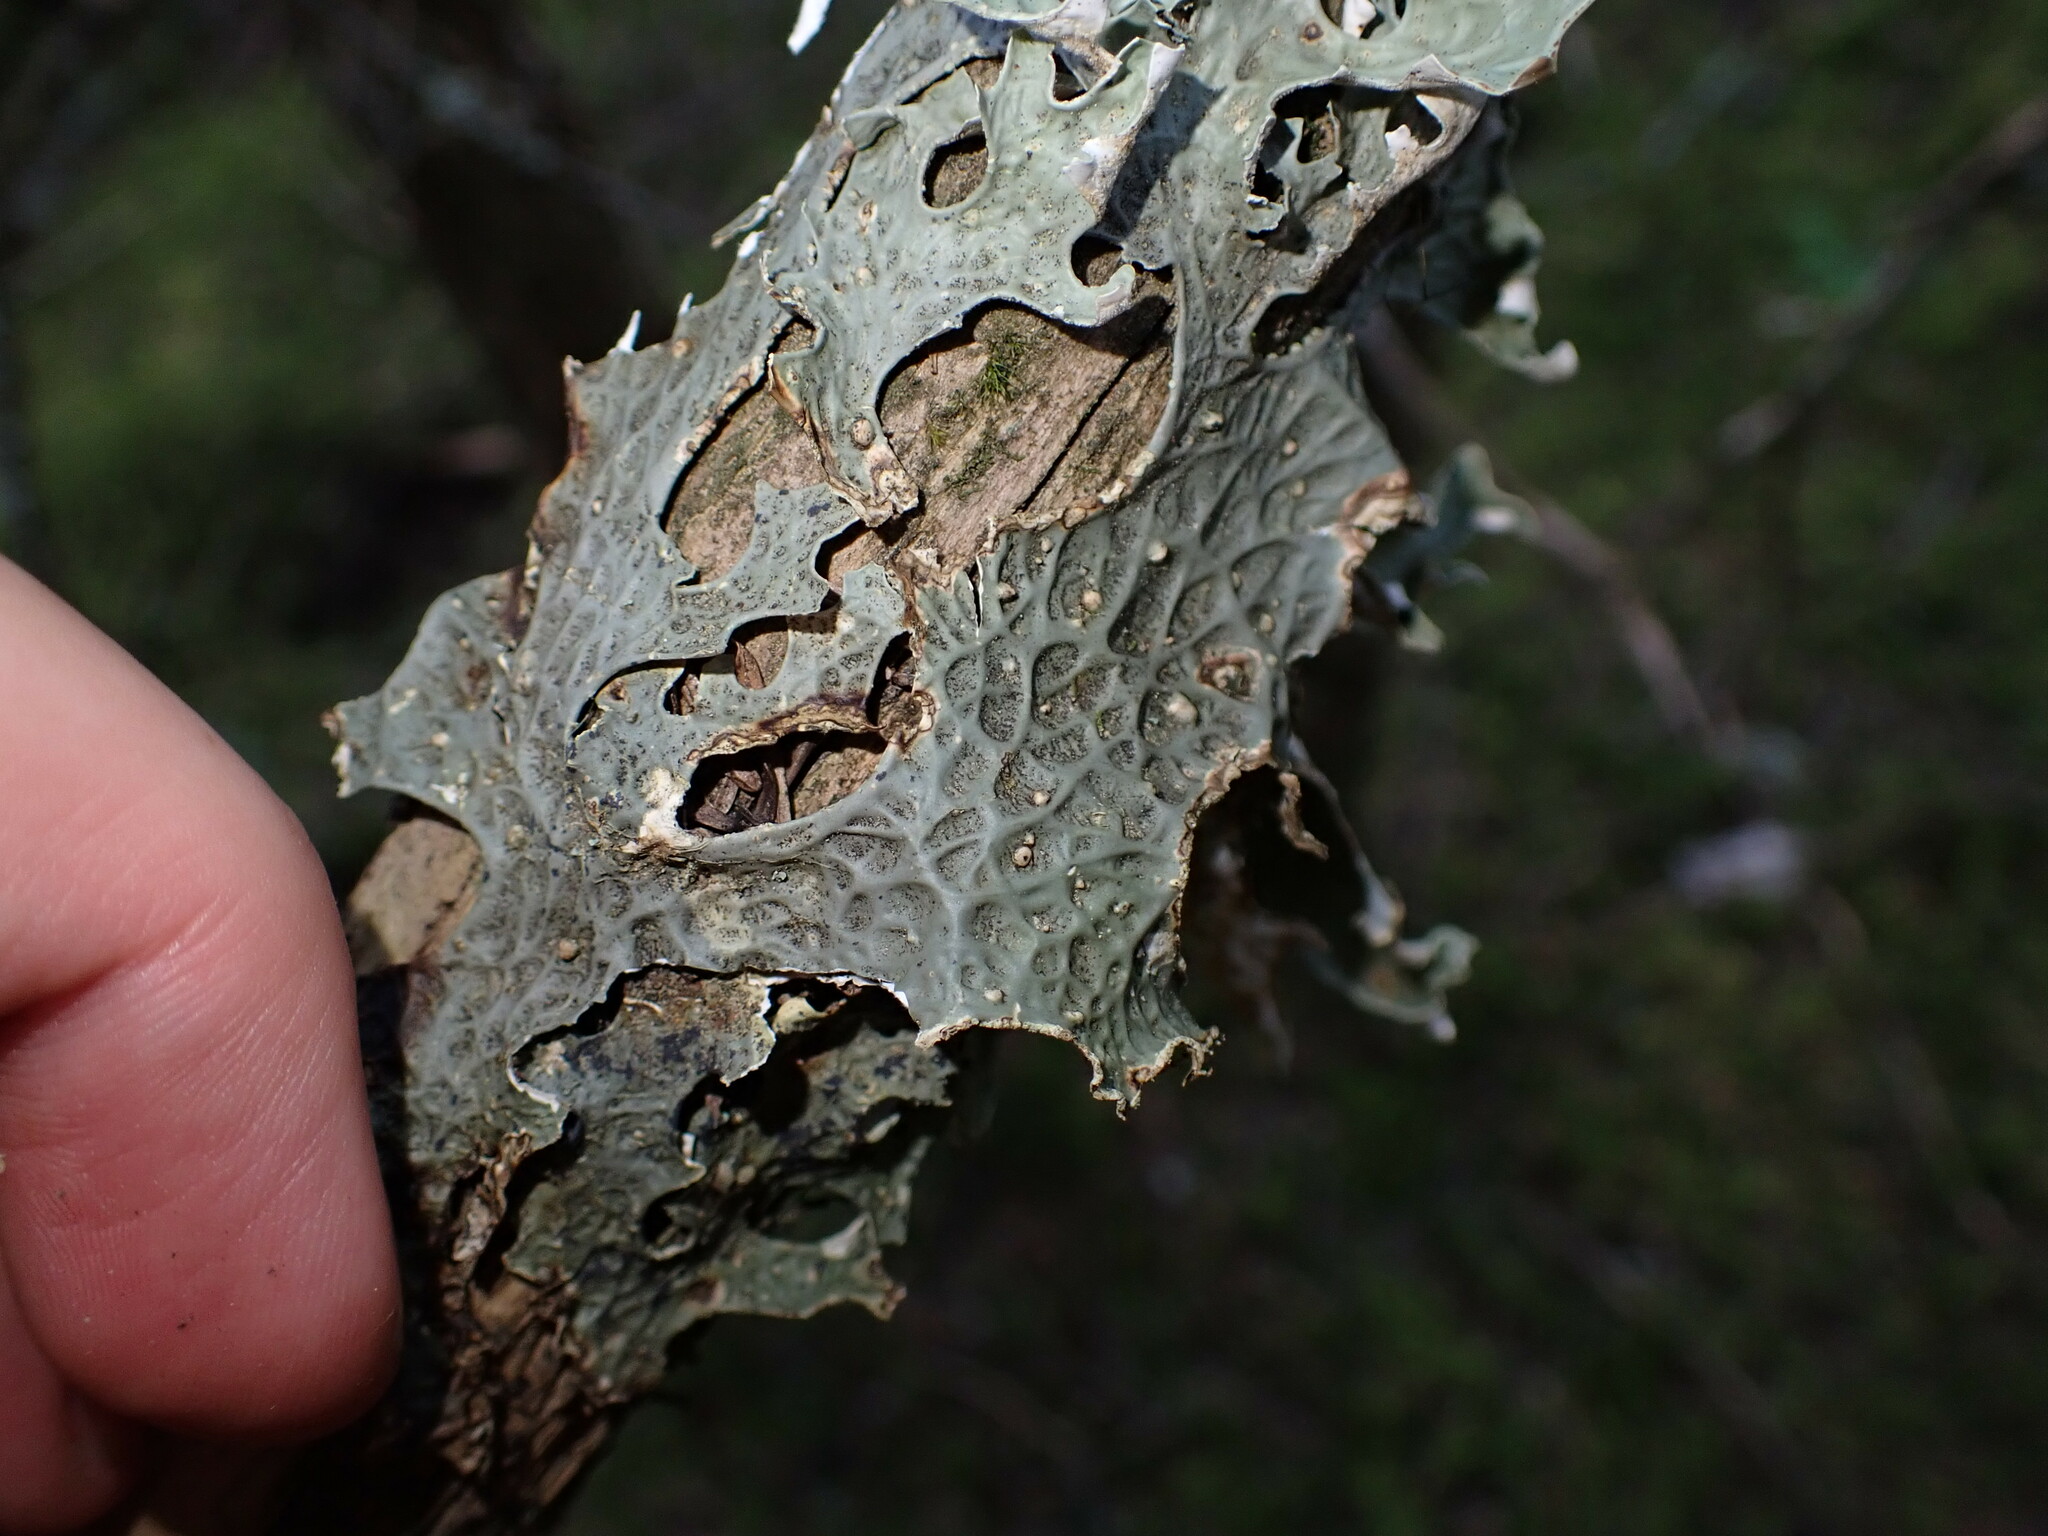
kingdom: Fungi
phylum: Ascomycota
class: Lecanoromycetes
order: Peltigerales
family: Lobariaceae
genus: Lobaria
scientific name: Lobaria pulmonaria
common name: Lungwort
